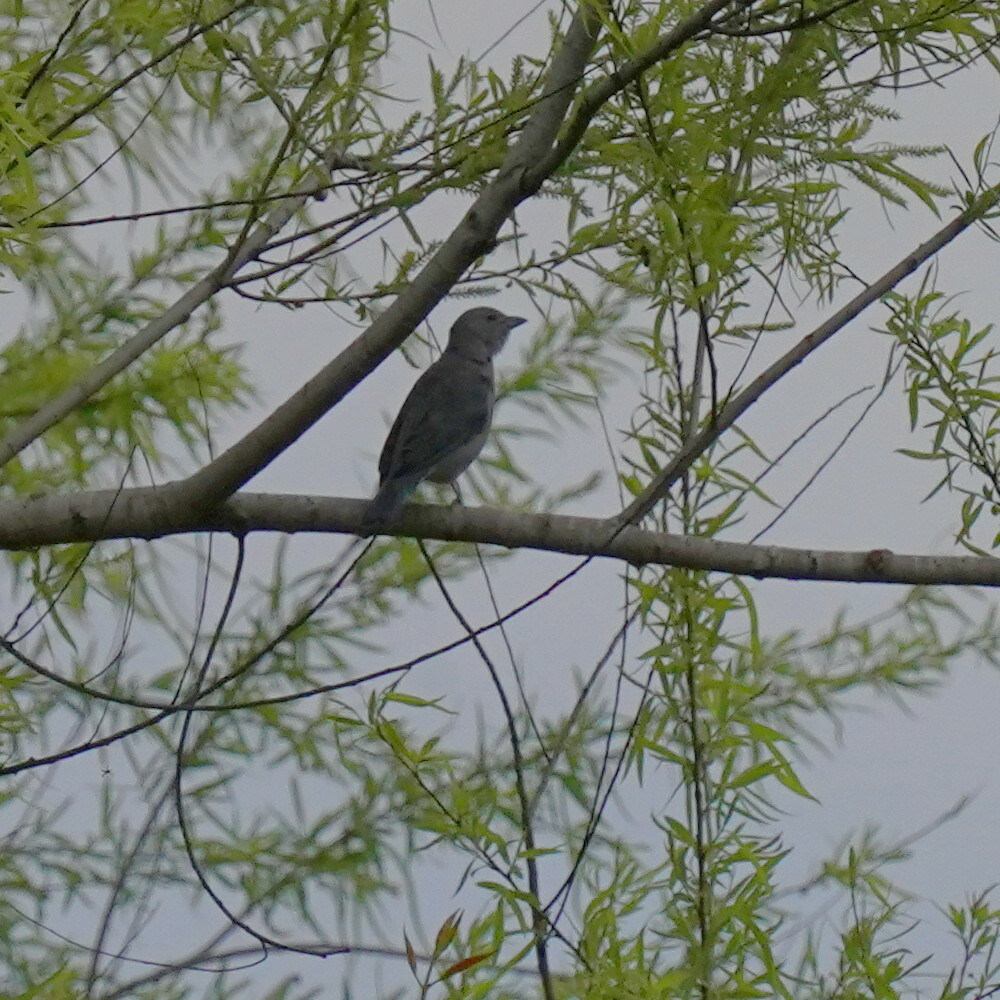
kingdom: Animalia
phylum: Chordata
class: Aves
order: Passeriformes
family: Thraupidae
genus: Thraupis
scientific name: Thraupis sayaca
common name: Sayaca tanager
